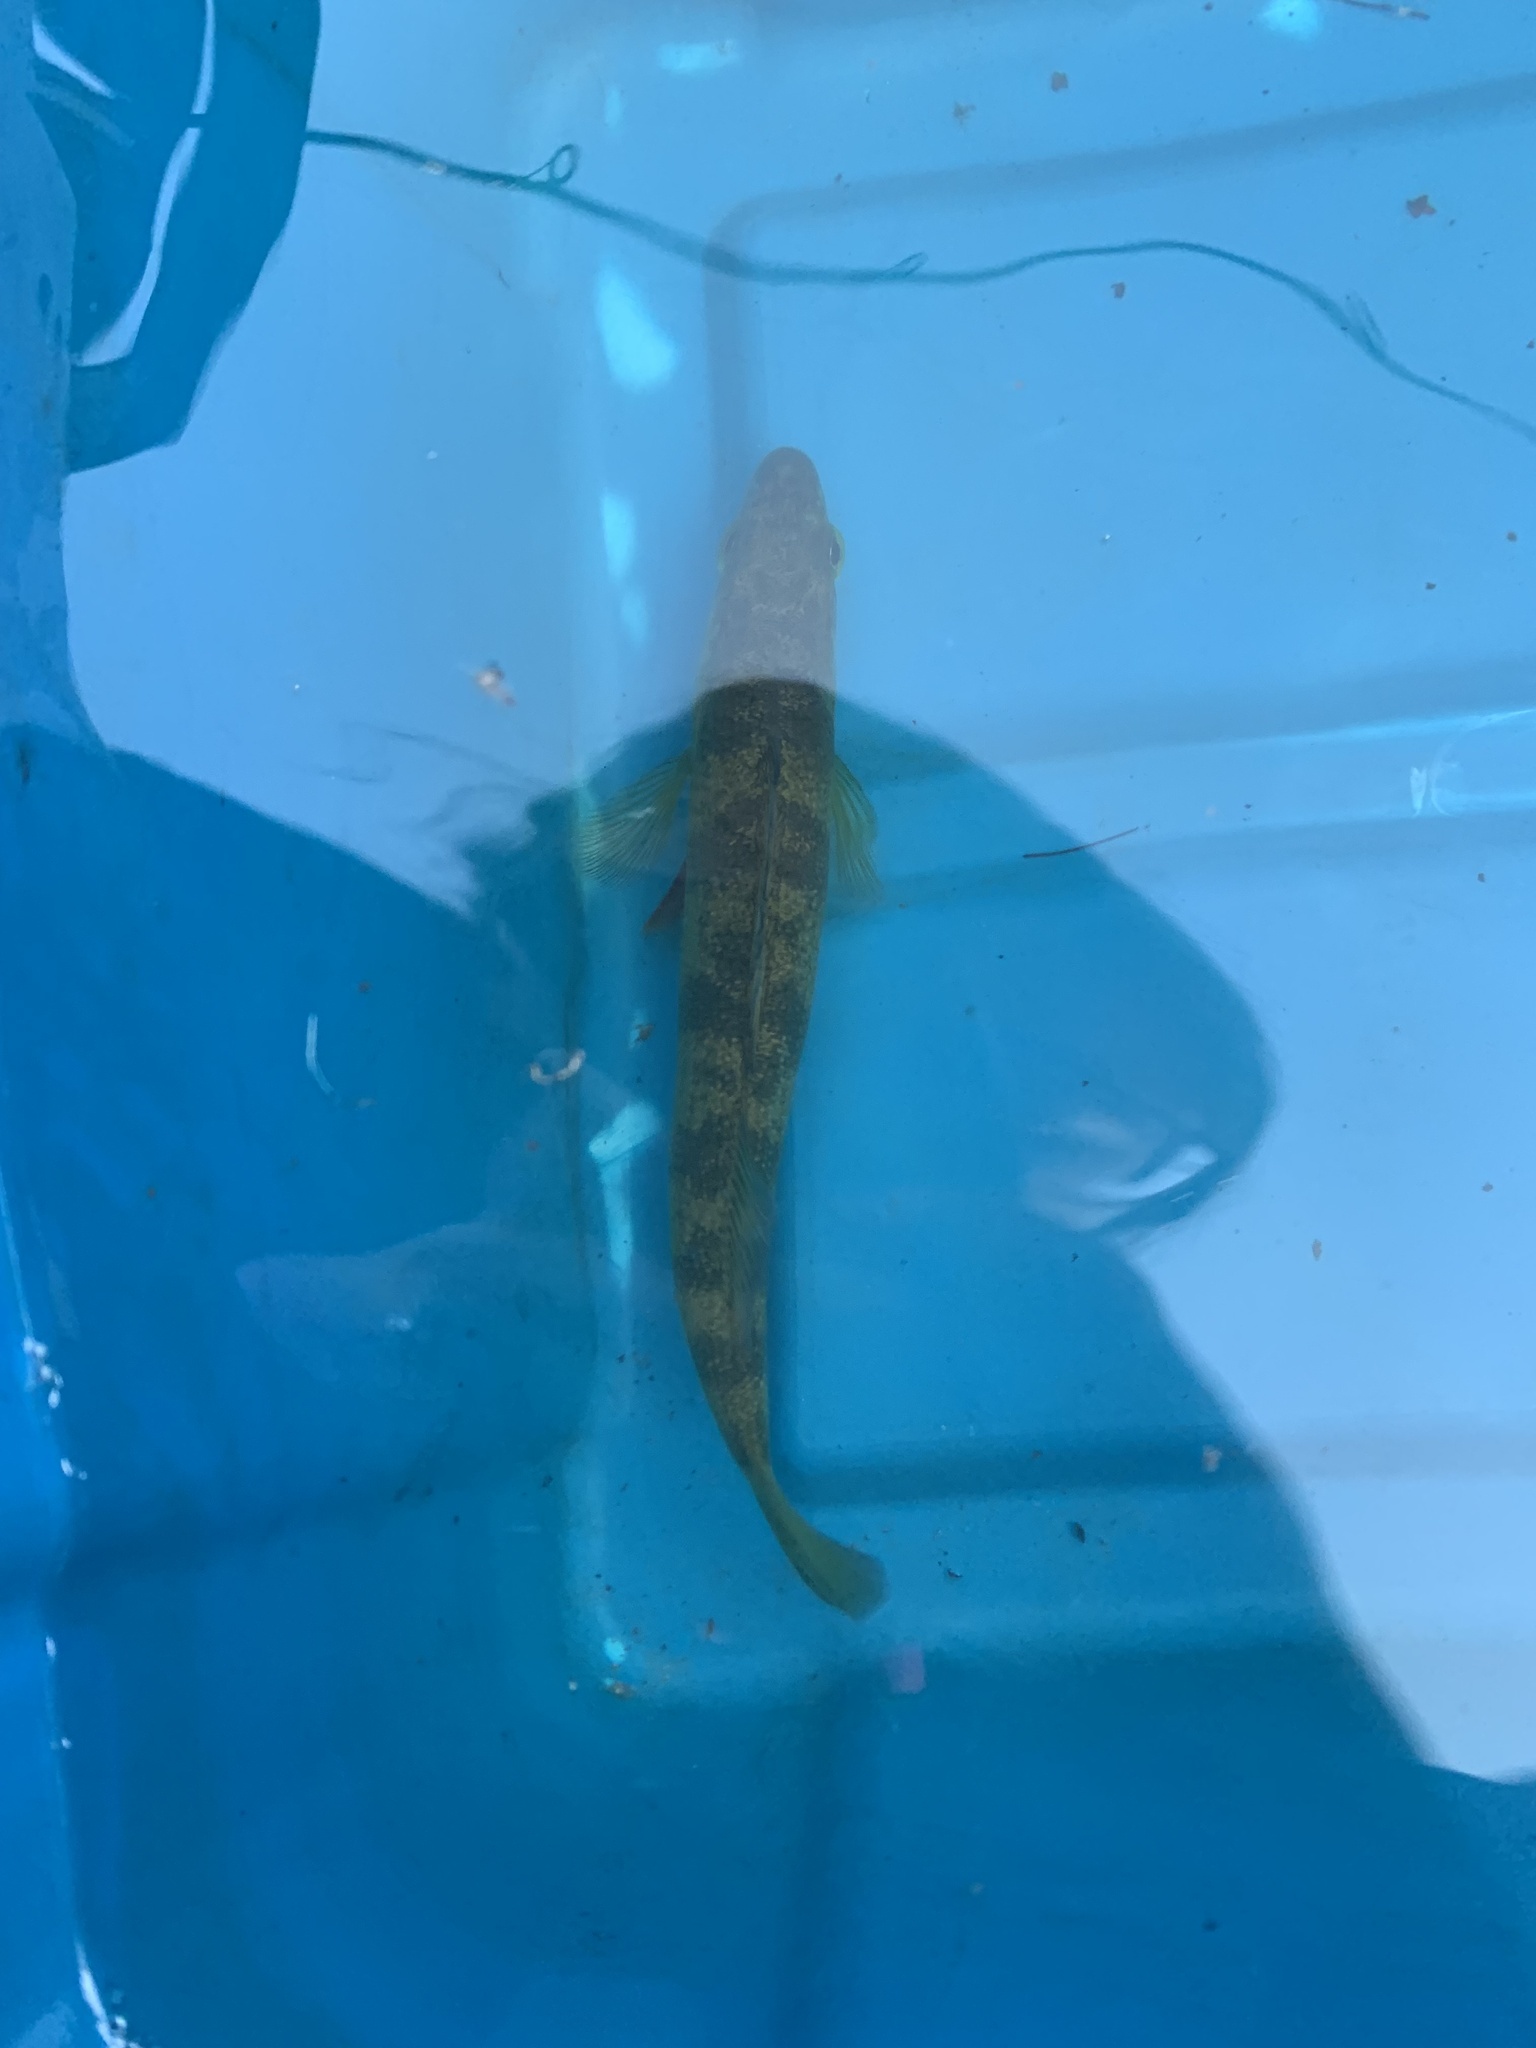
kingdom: Animalia
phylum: Chordata
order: Perciformes
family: Percidae
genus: Perca
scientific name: Perca flavescens
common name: Yellow perch
